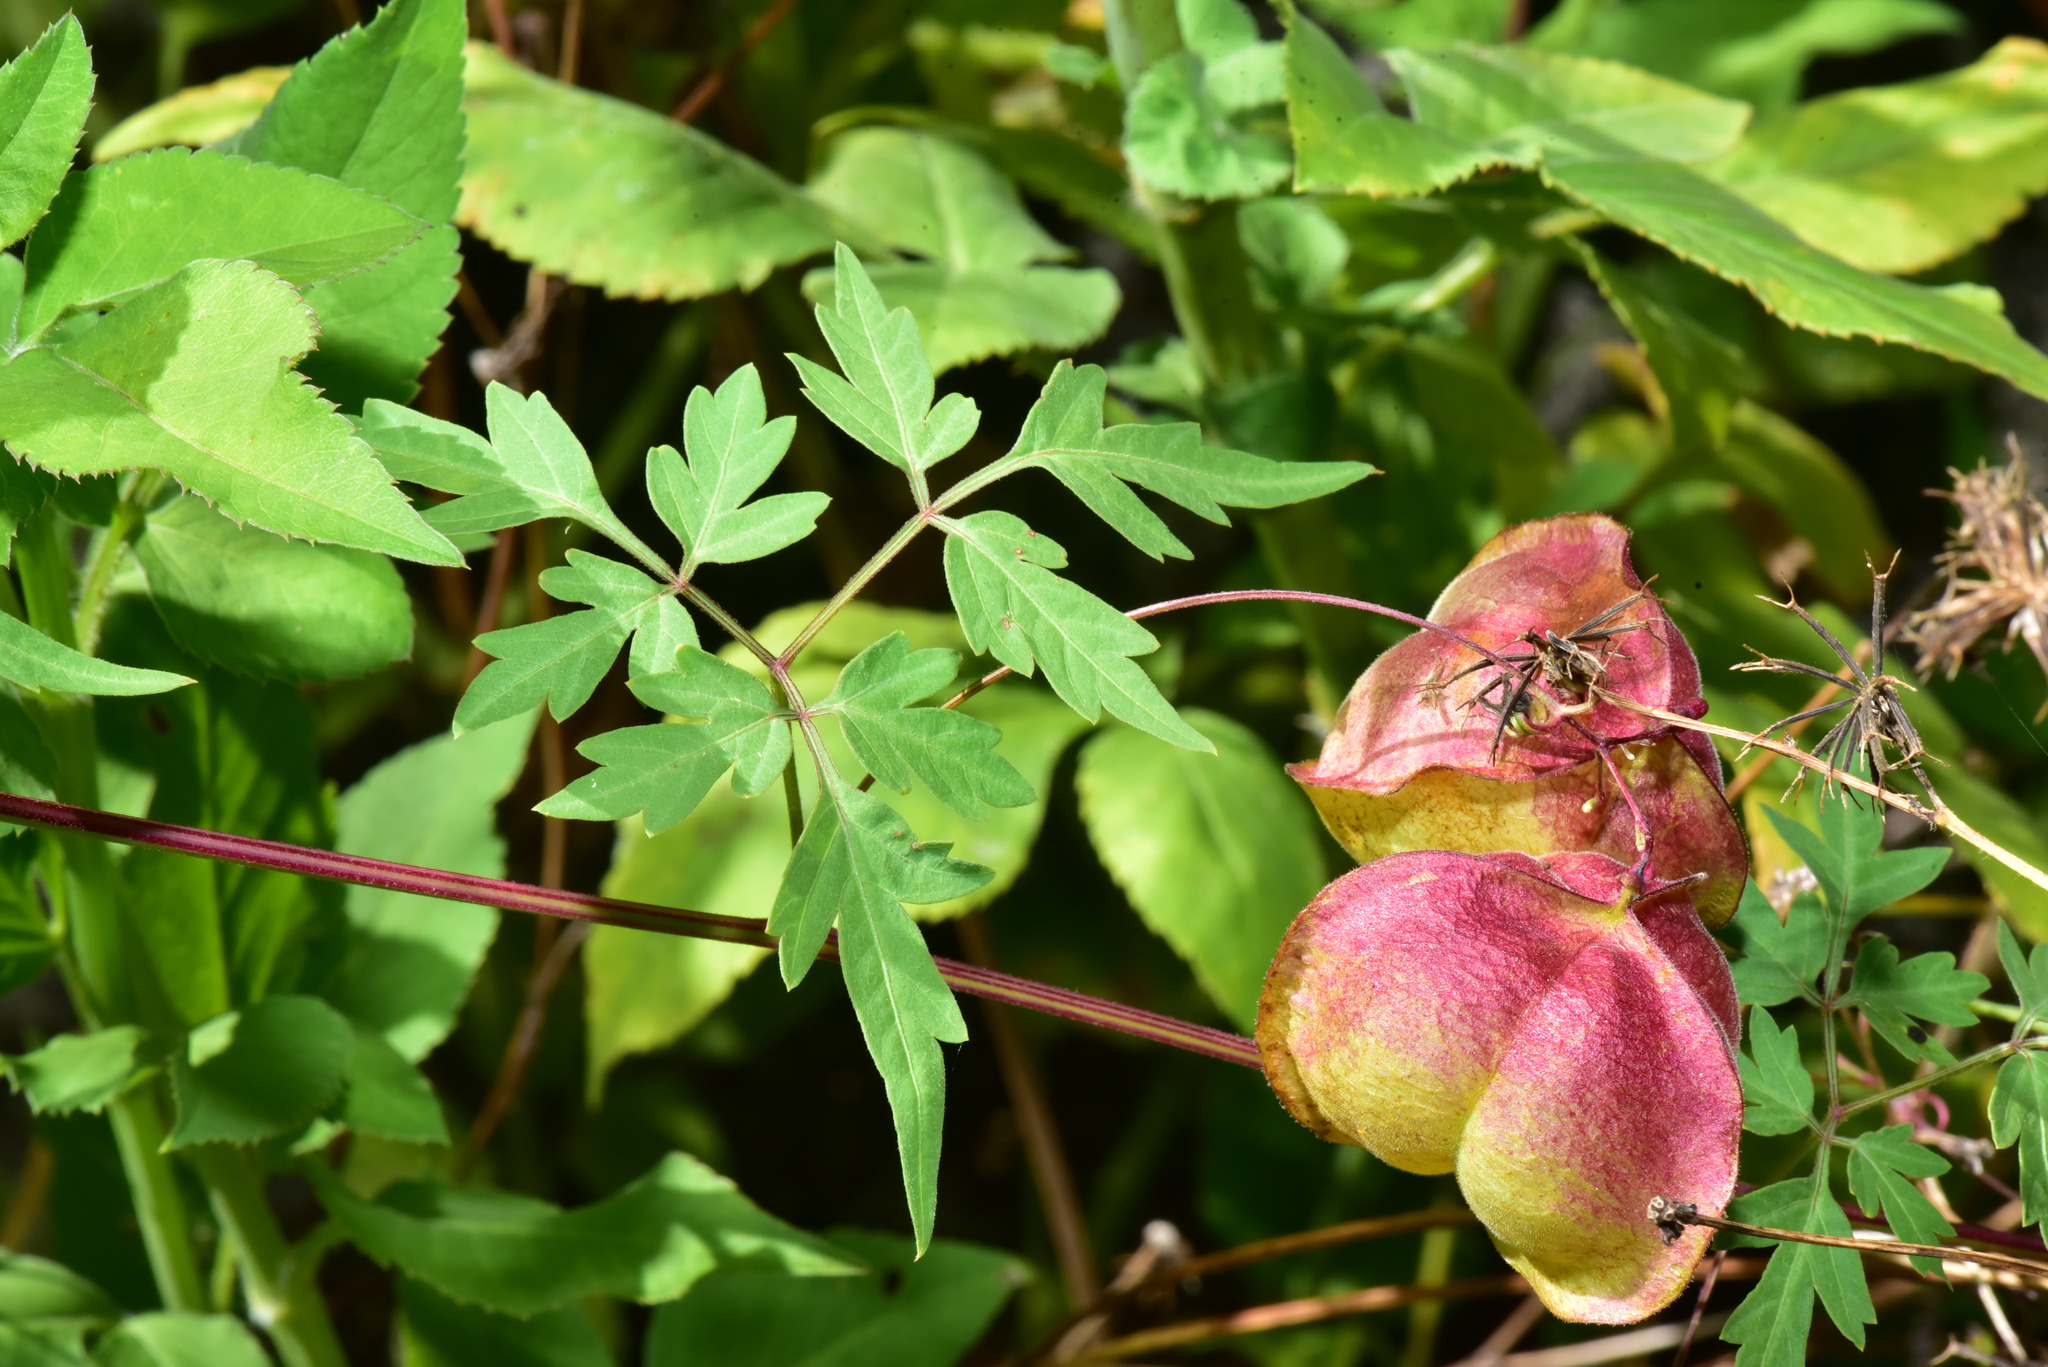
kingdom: Plantae
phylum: Tracheophyta
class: Magnoliopsida
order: Sapindales
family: Sapindaceae
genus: Cardiospermum
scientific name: Cardiospermum halicacabum
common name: Balloon vine
